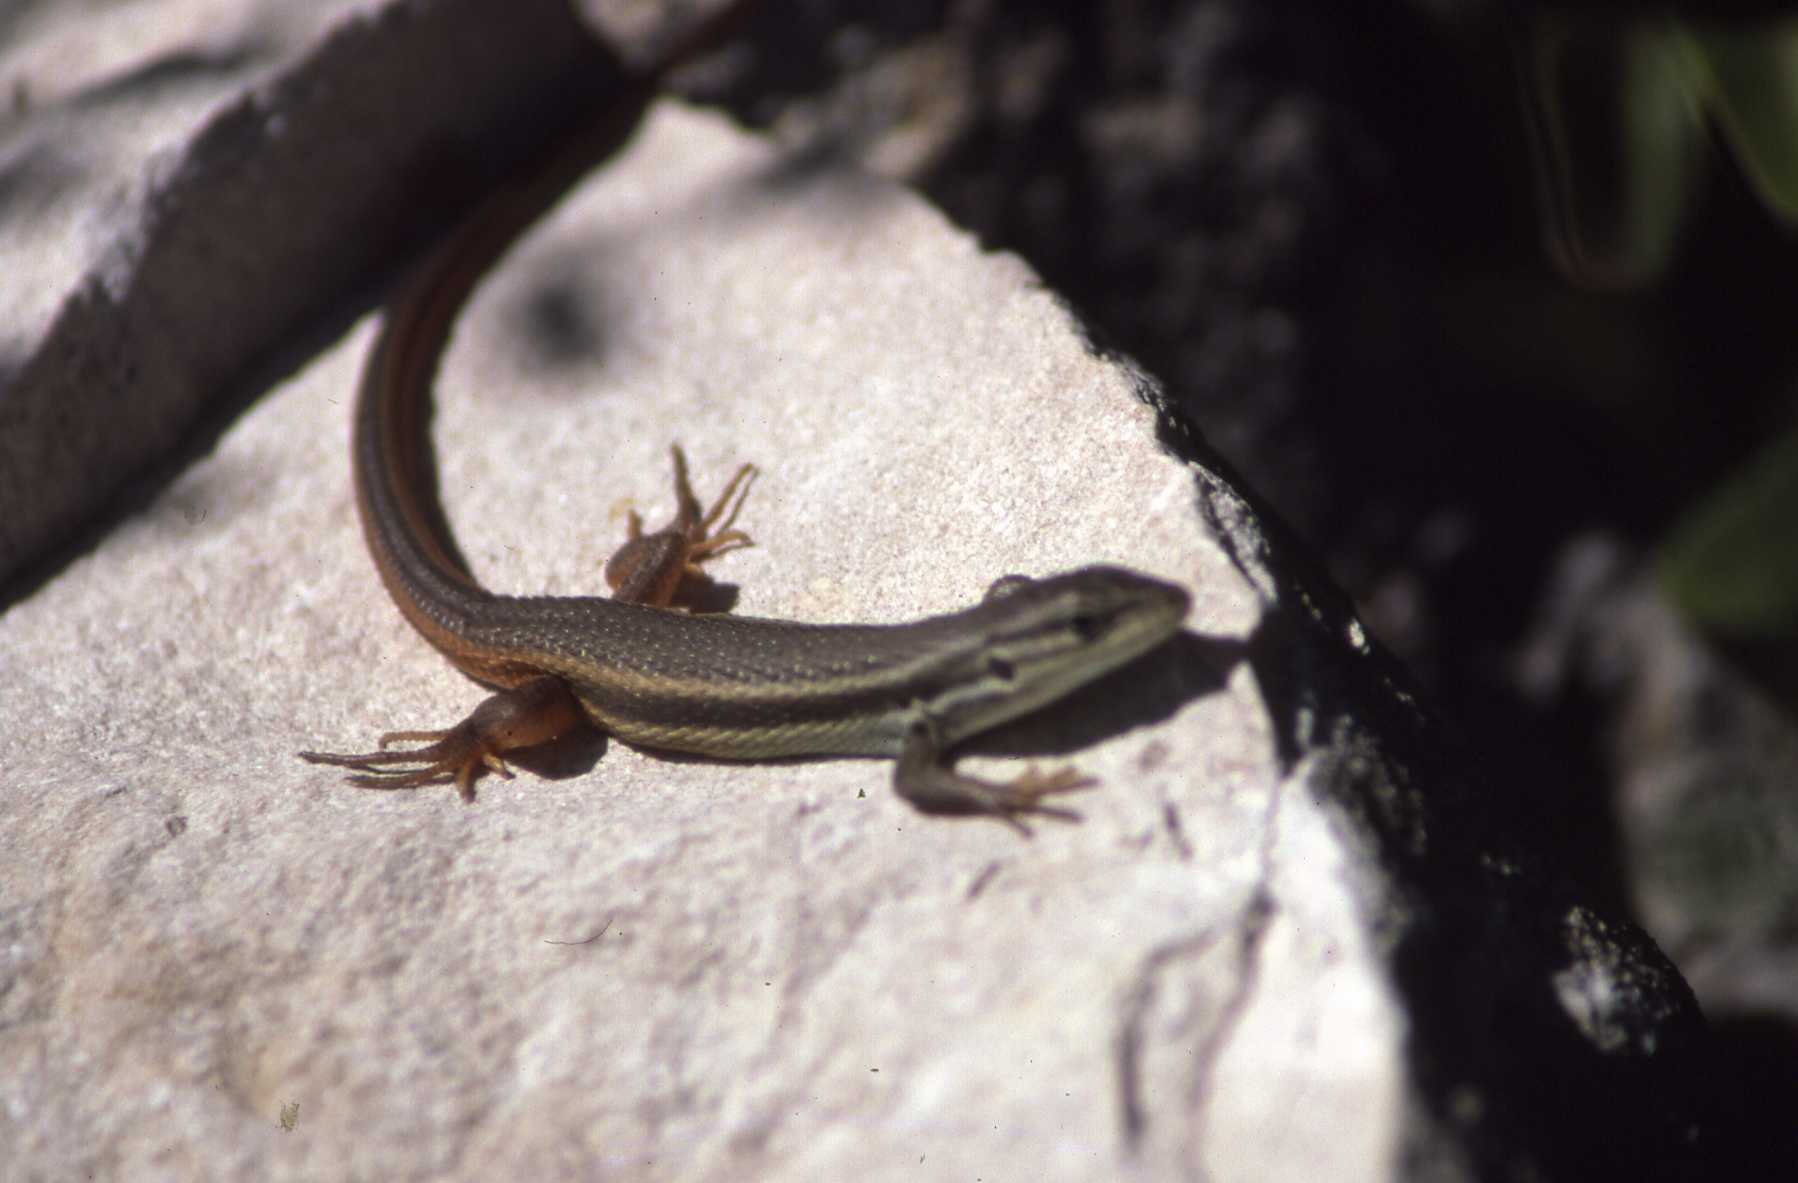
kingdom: Animalia
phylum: Chordata
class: Squamata
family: Lacertidae
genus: Psammodromus
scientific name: Psammodromus algirus
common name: Algerian psammodromus
